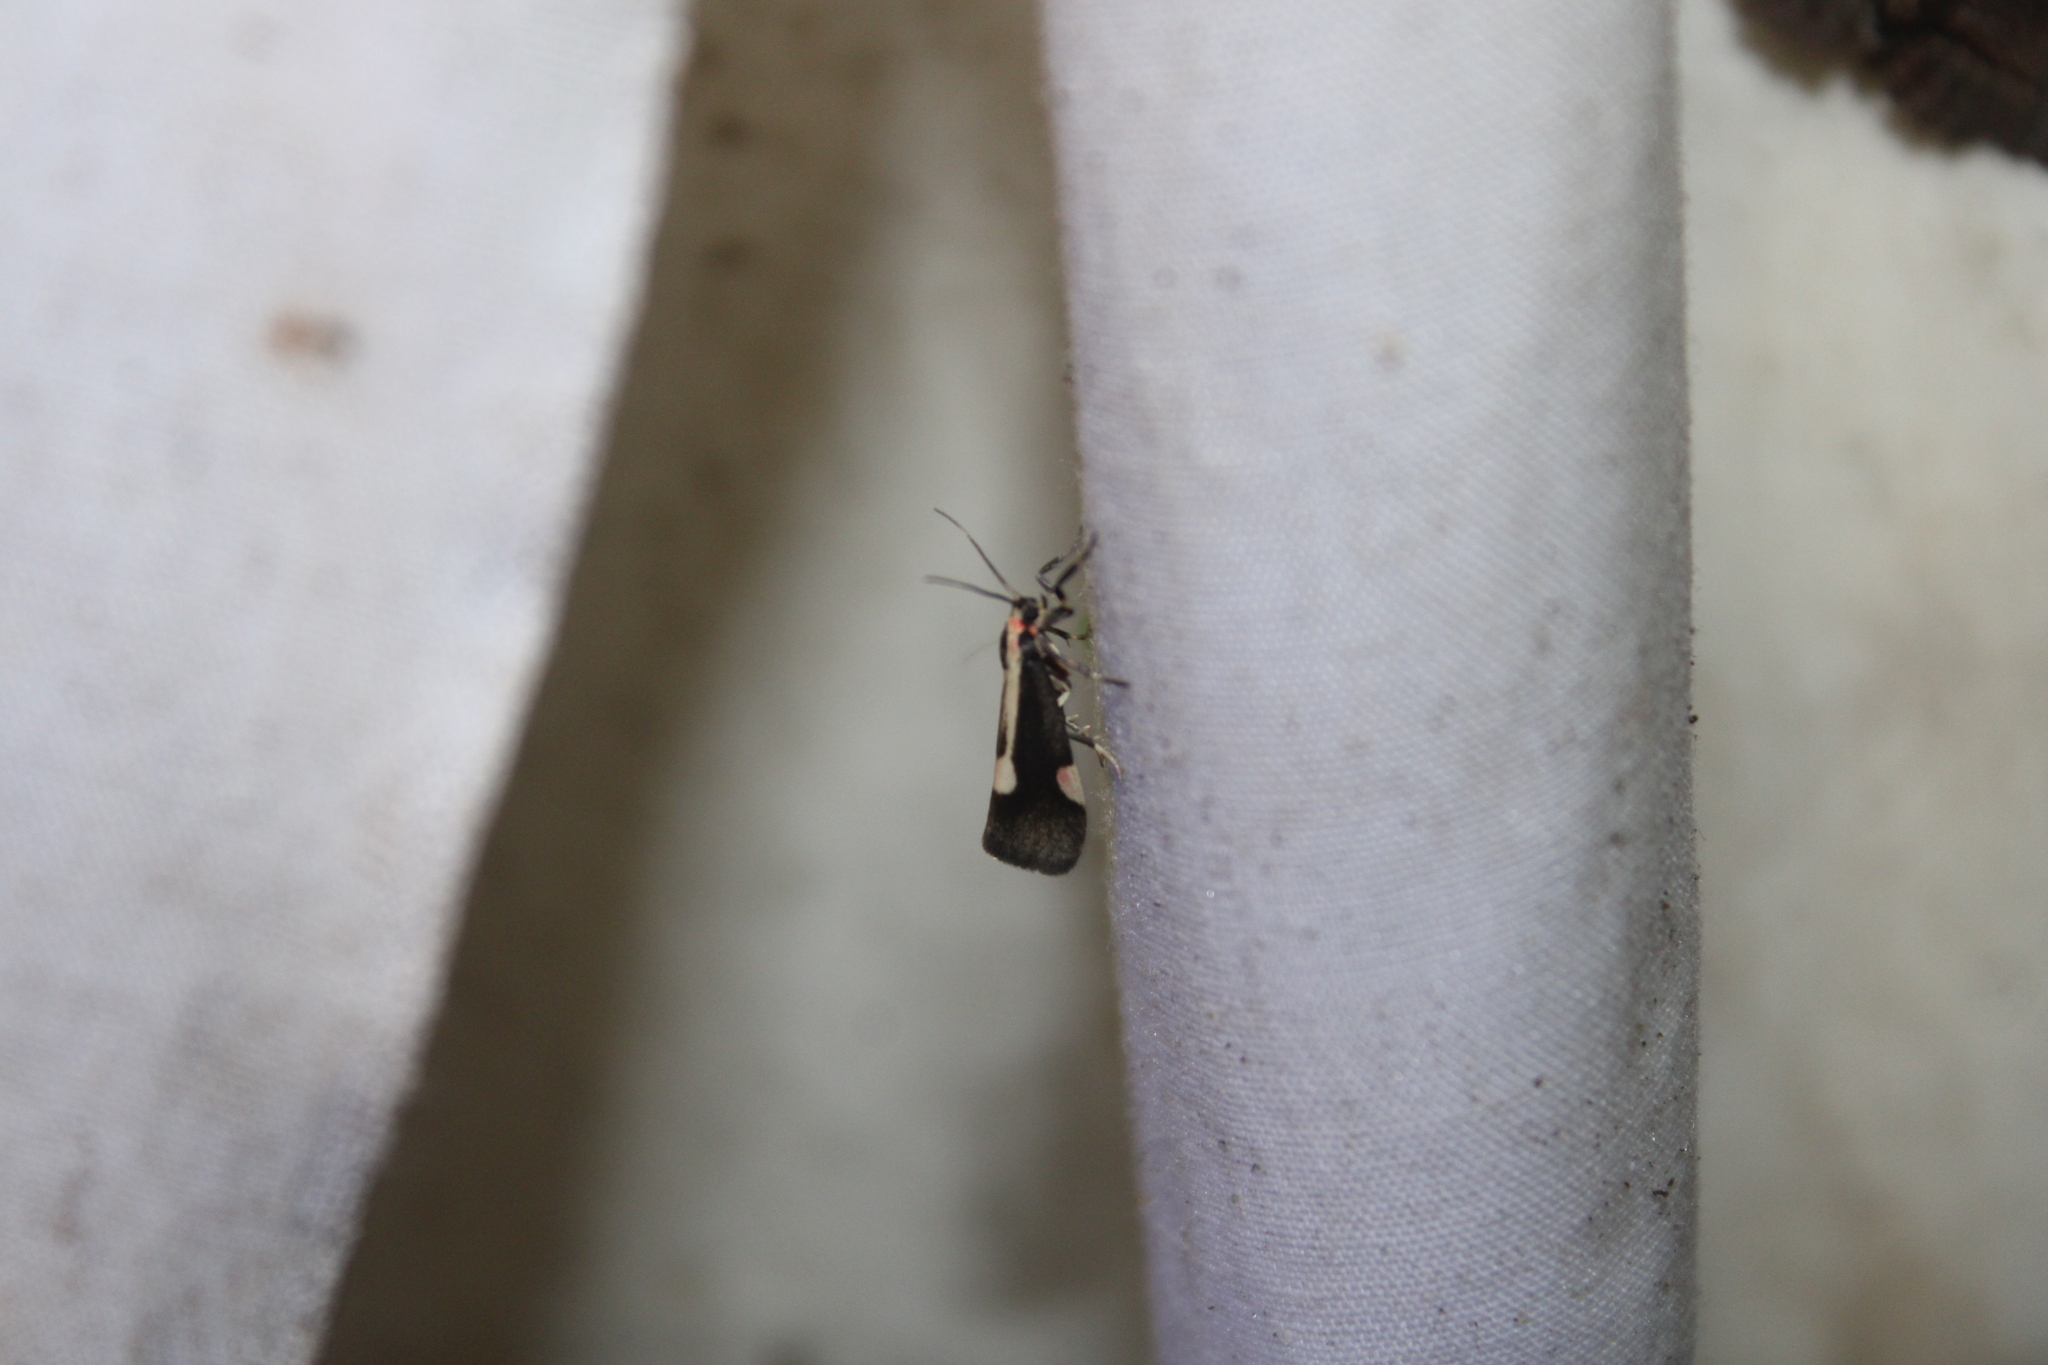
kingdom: Animalia
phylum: Arthropoda
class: Insecta
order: Lepidoptera
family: Erebidae
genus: Cisthene
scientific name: Cisthene packardii
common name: Packard's lichen moth
